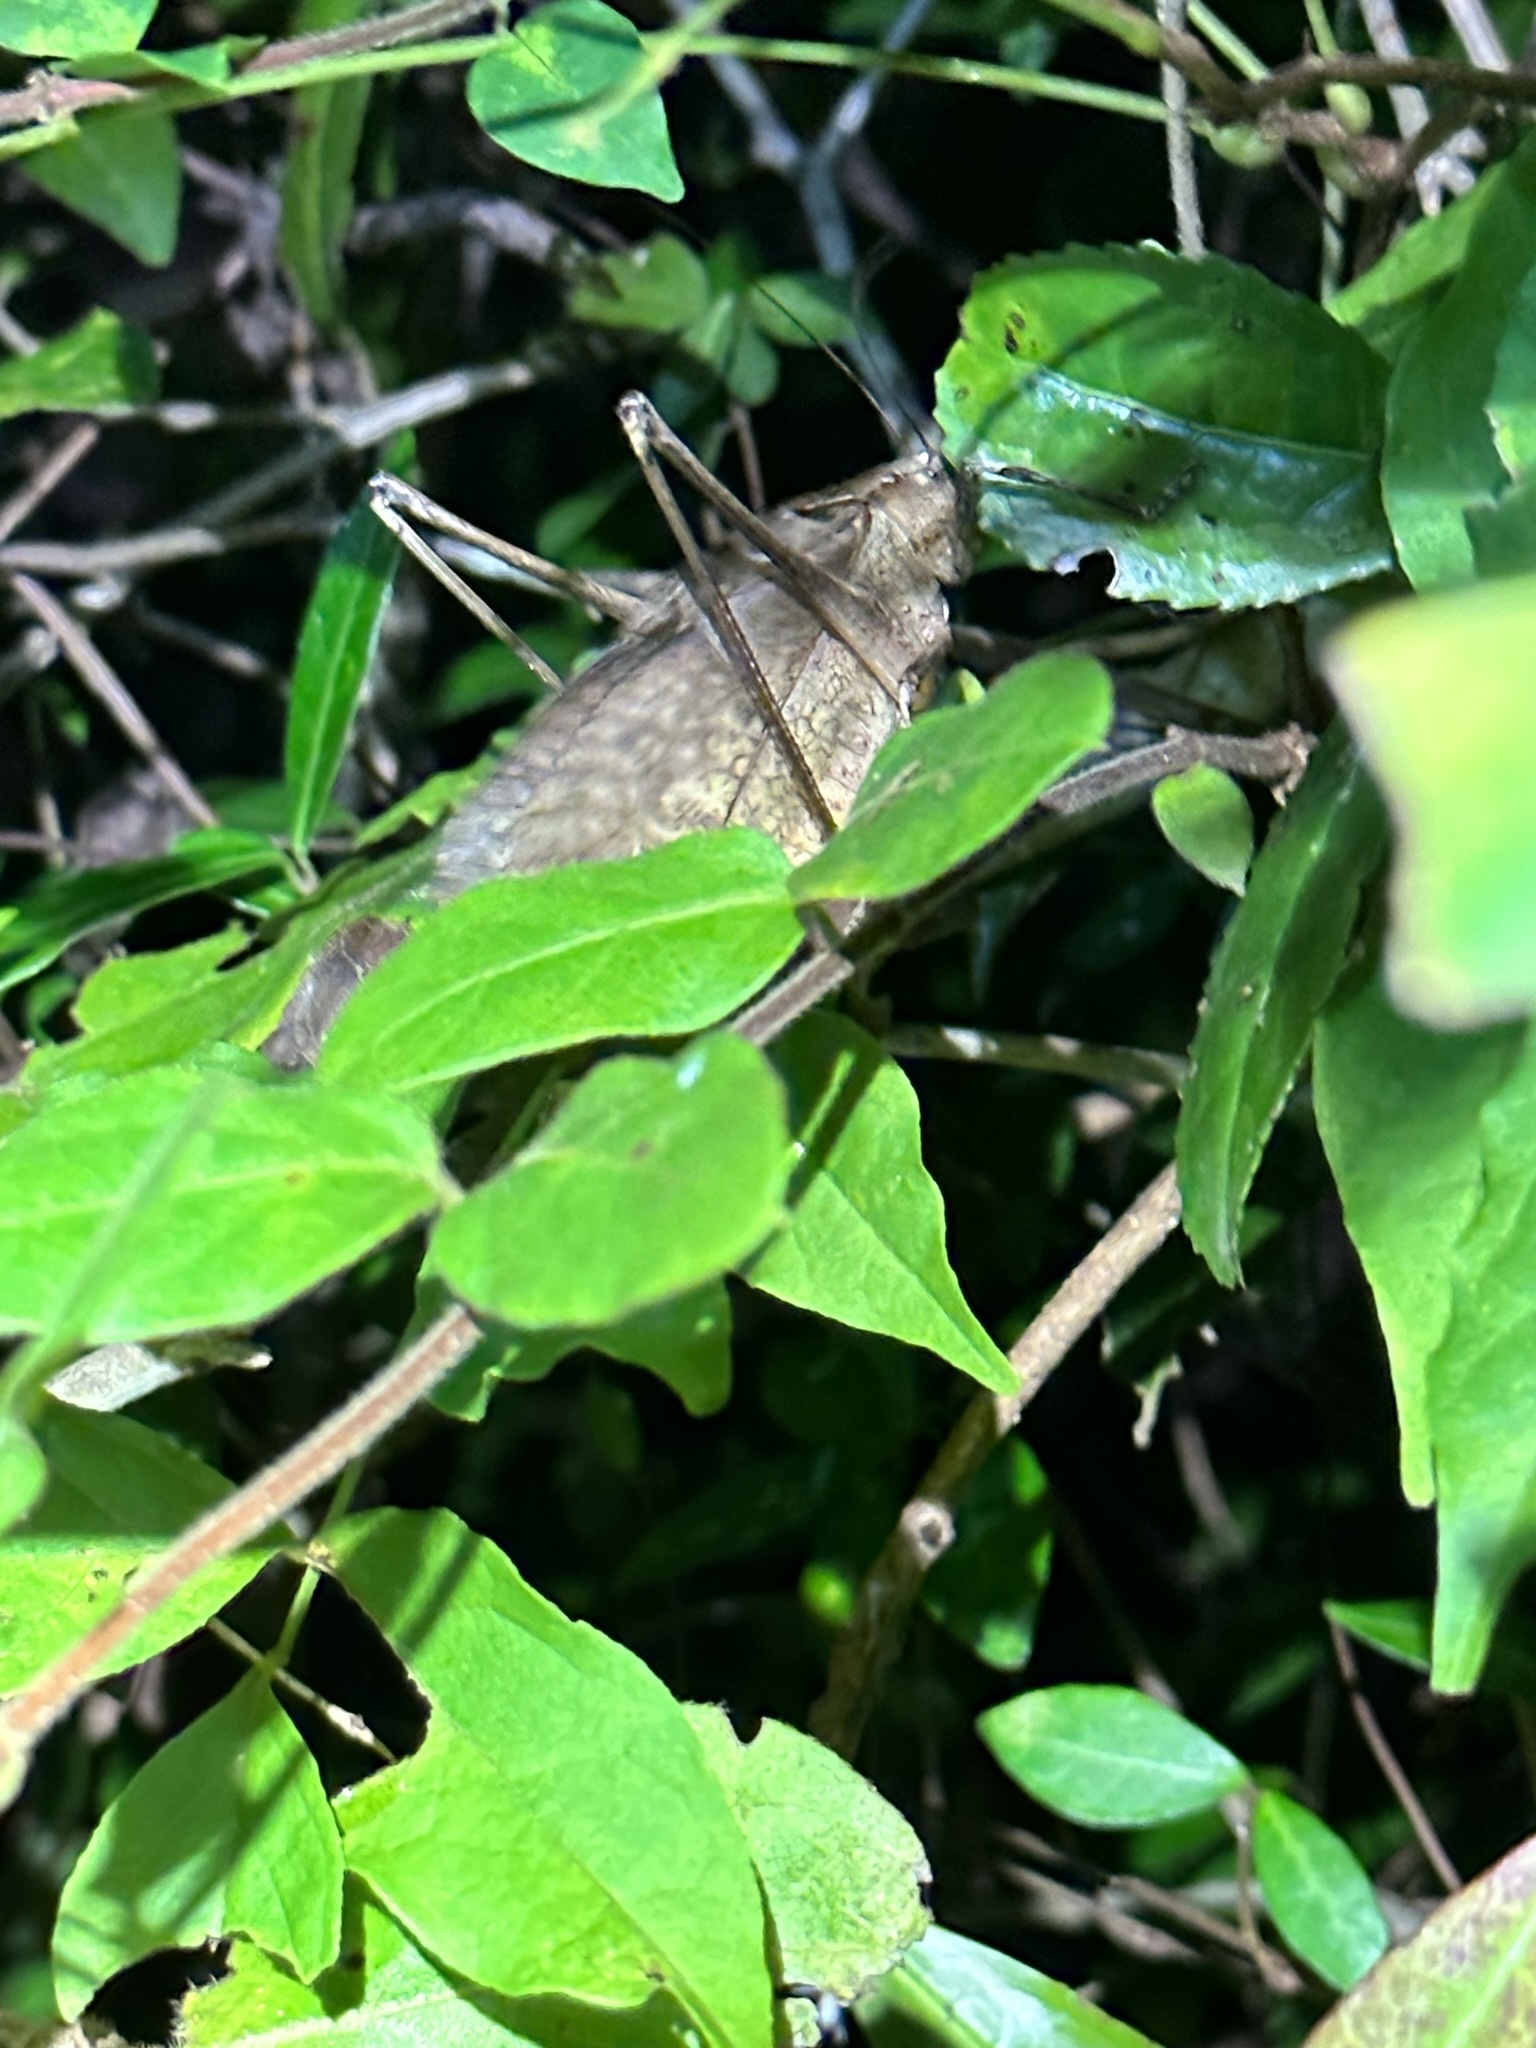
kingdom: Animalia
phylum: Arthropoda
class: Insecta
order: Orthoptera
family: Tettigoniidae
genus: Mecopoda
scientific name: Mecopoda niponensis
